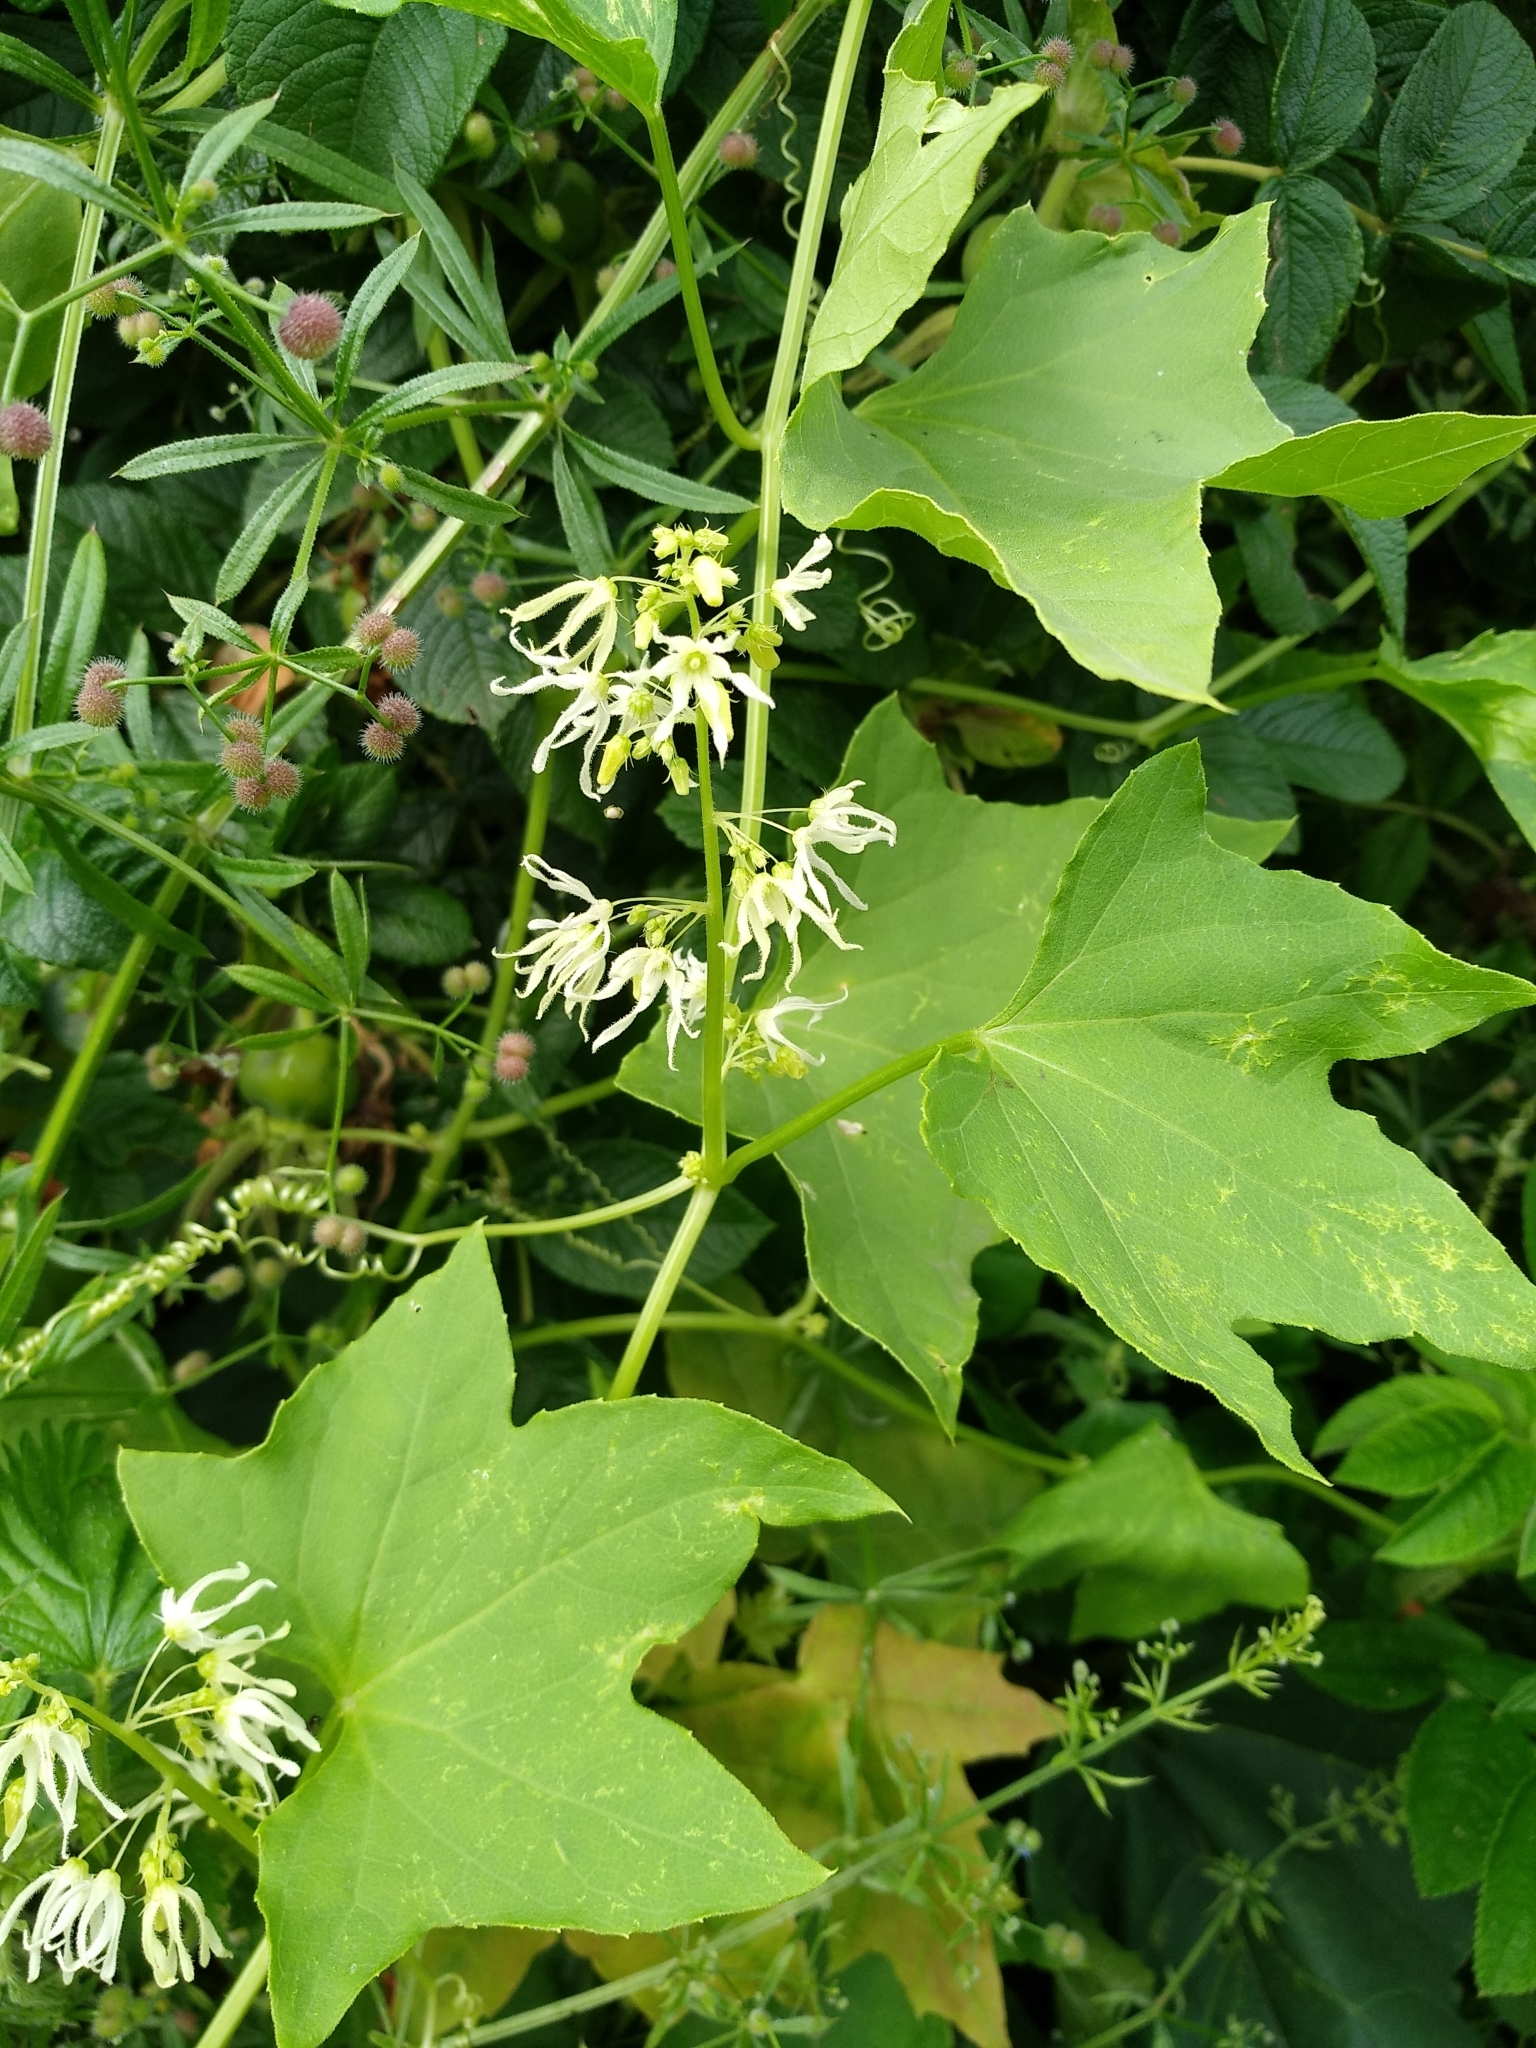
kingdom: Plantae
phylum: Tracheophyta
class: Magnoliopsida
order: Cucurbitales
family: Cucurbitaceae
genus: Echinocystis
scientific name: Echinocystis lobata
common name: Wild cucumber
